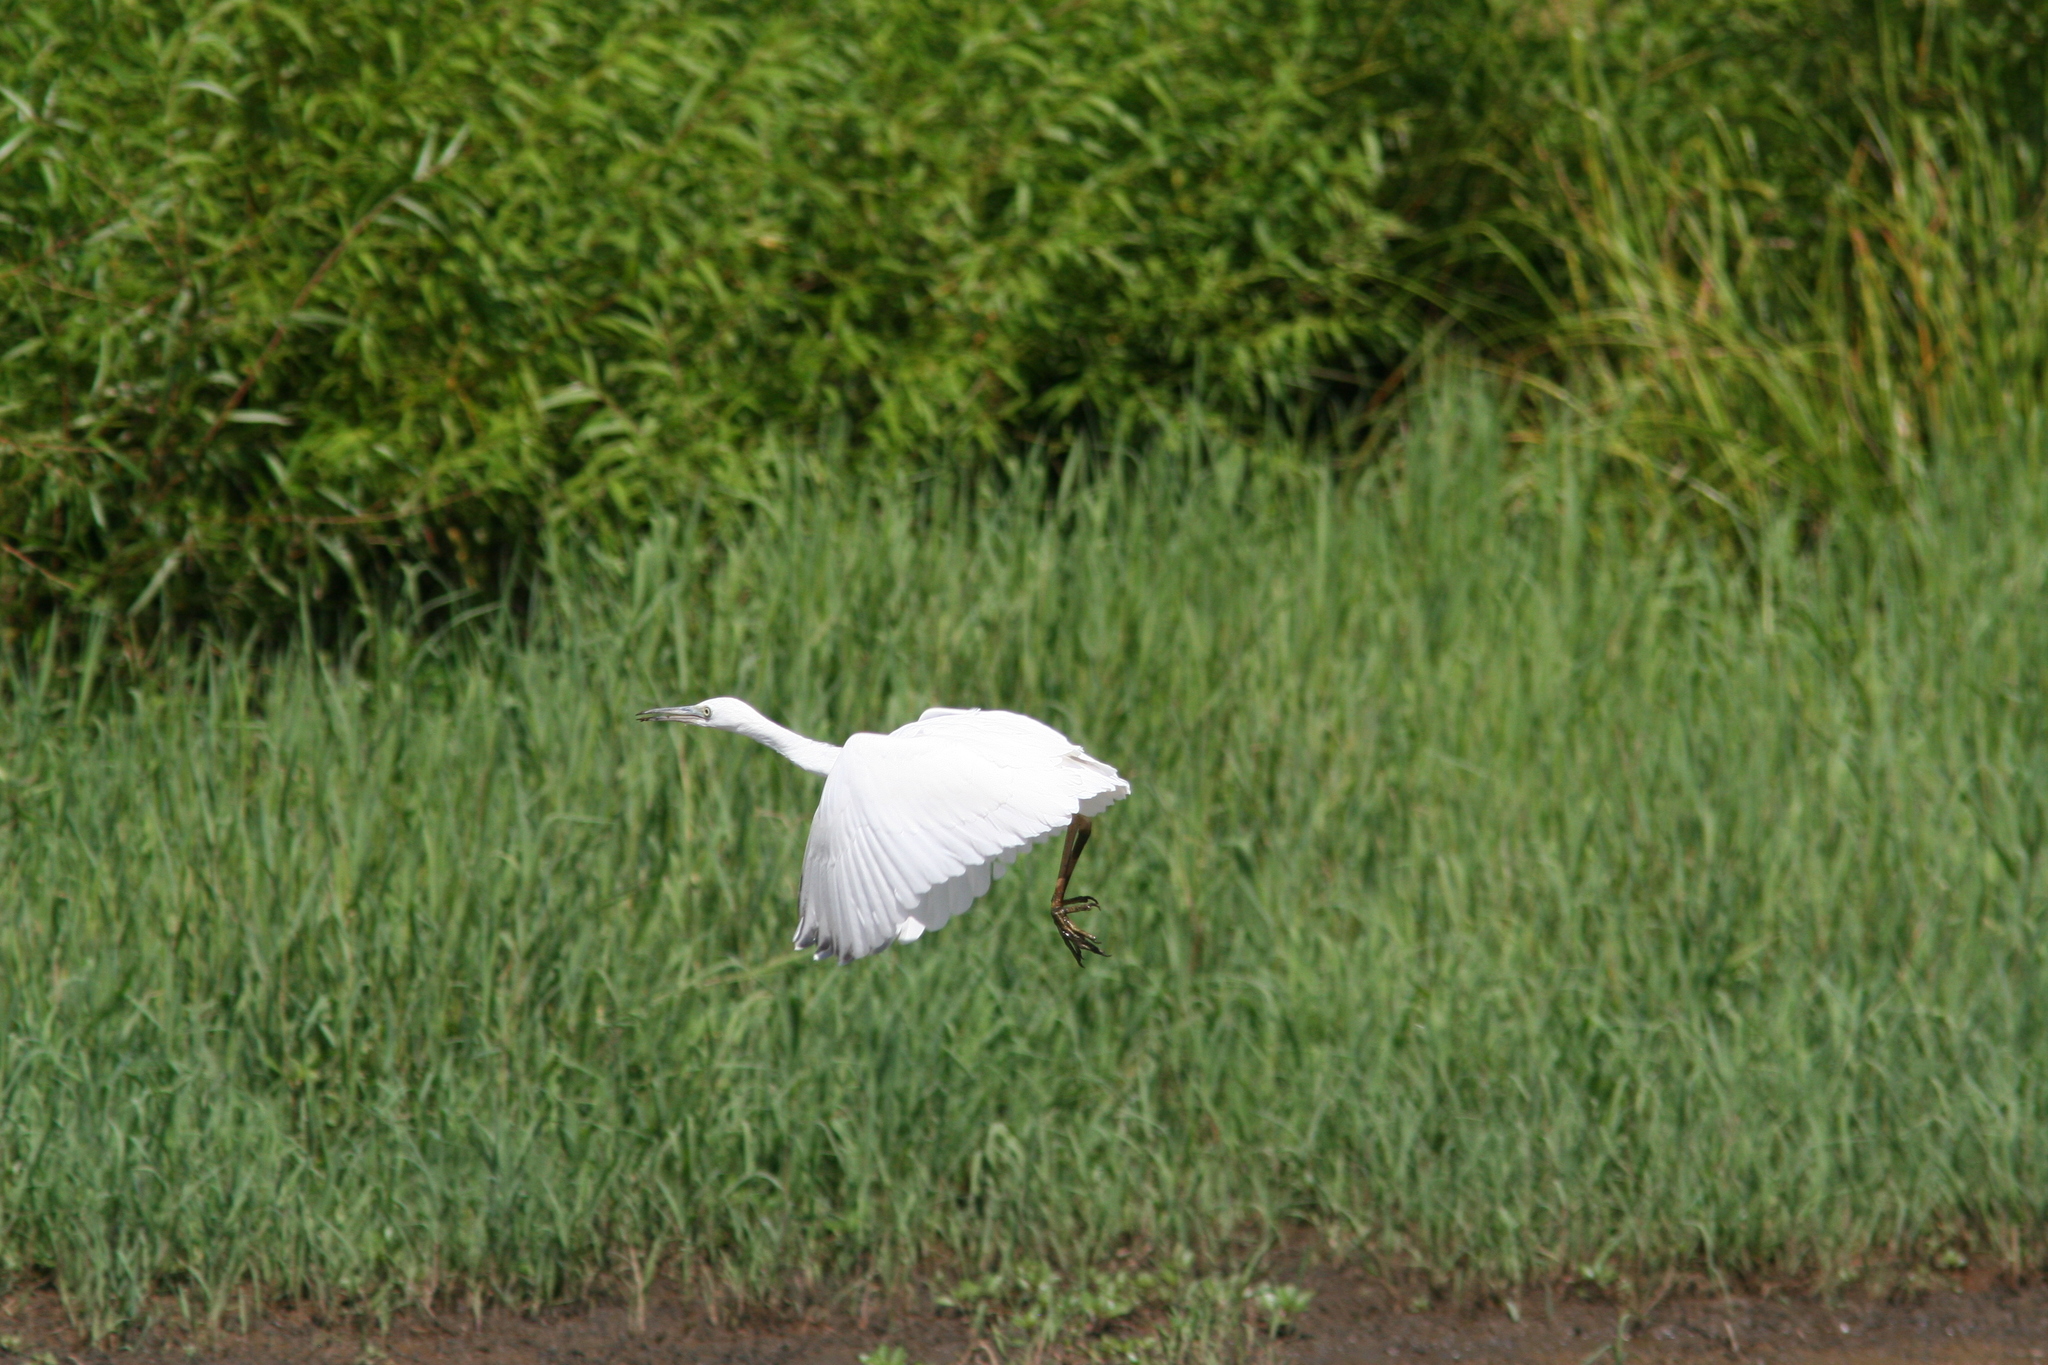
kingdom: Animalia
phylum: Chordata
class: Aves
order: Pelecaniformes
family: Ardeidae
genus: Egretta
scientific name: Egretta caerulea
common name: Little blue heron
